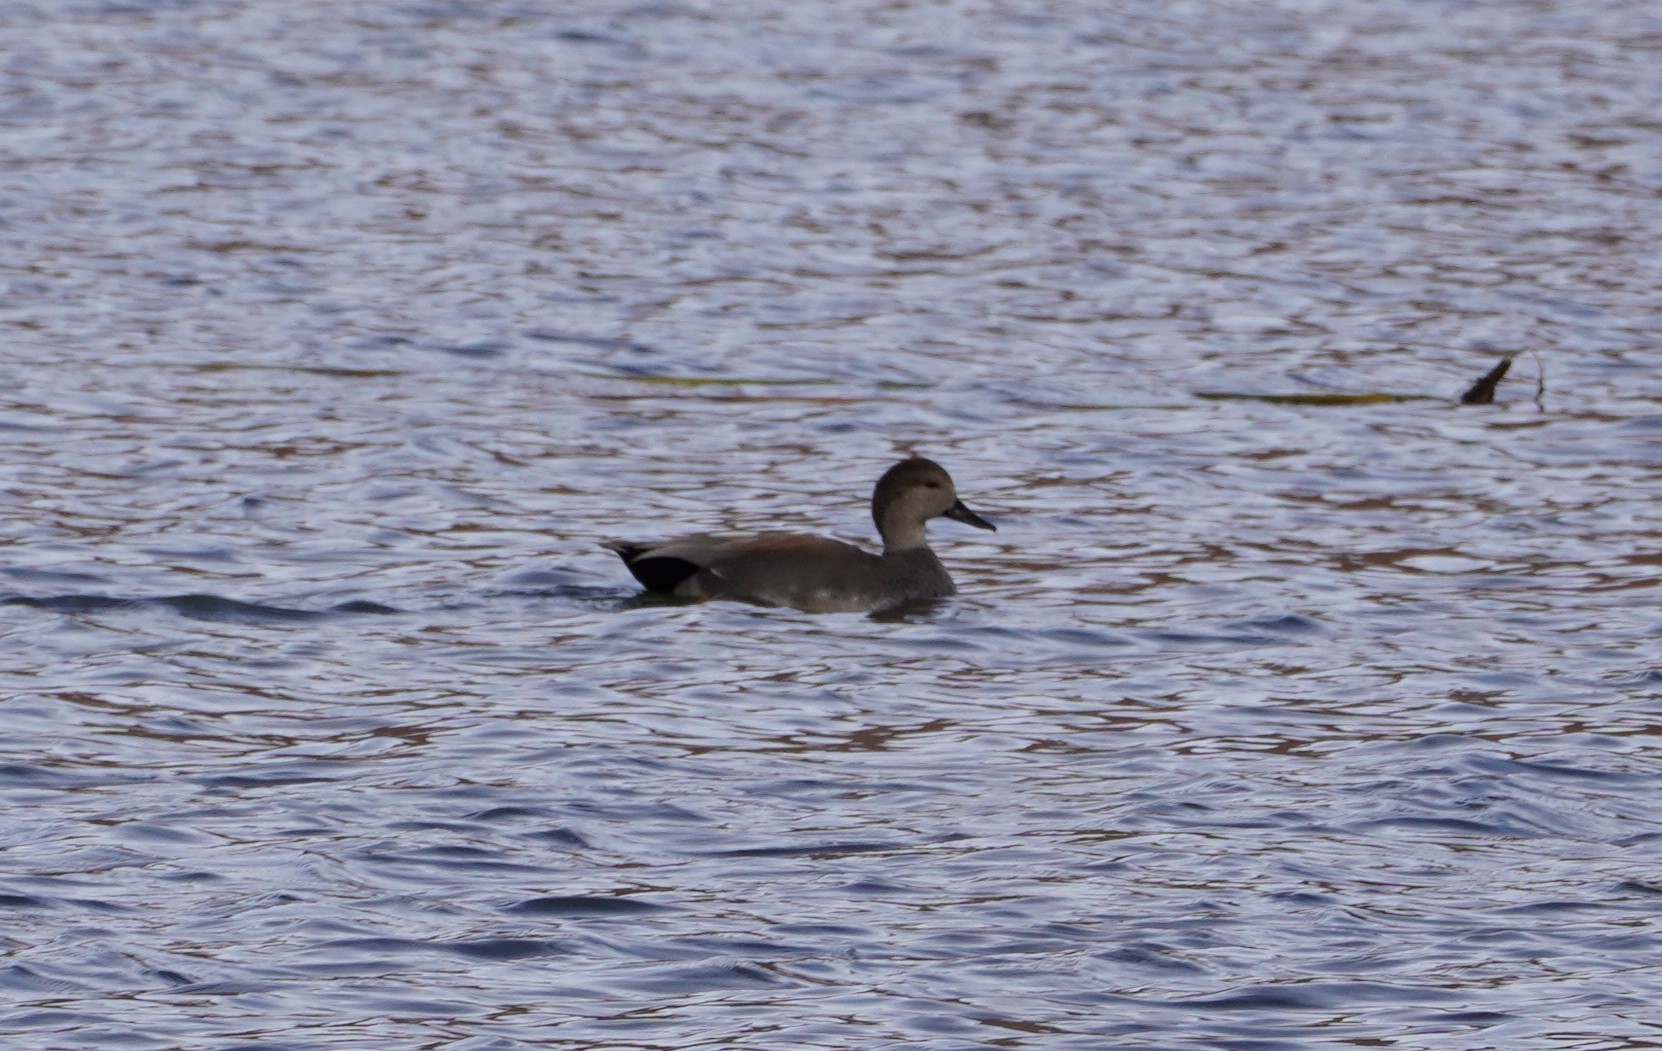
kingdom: Animalia
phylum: Chordata
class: Aves
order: Anseriformes
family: Anatidae
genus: Mareca
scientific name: Mareca strepera
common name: Gadwall
